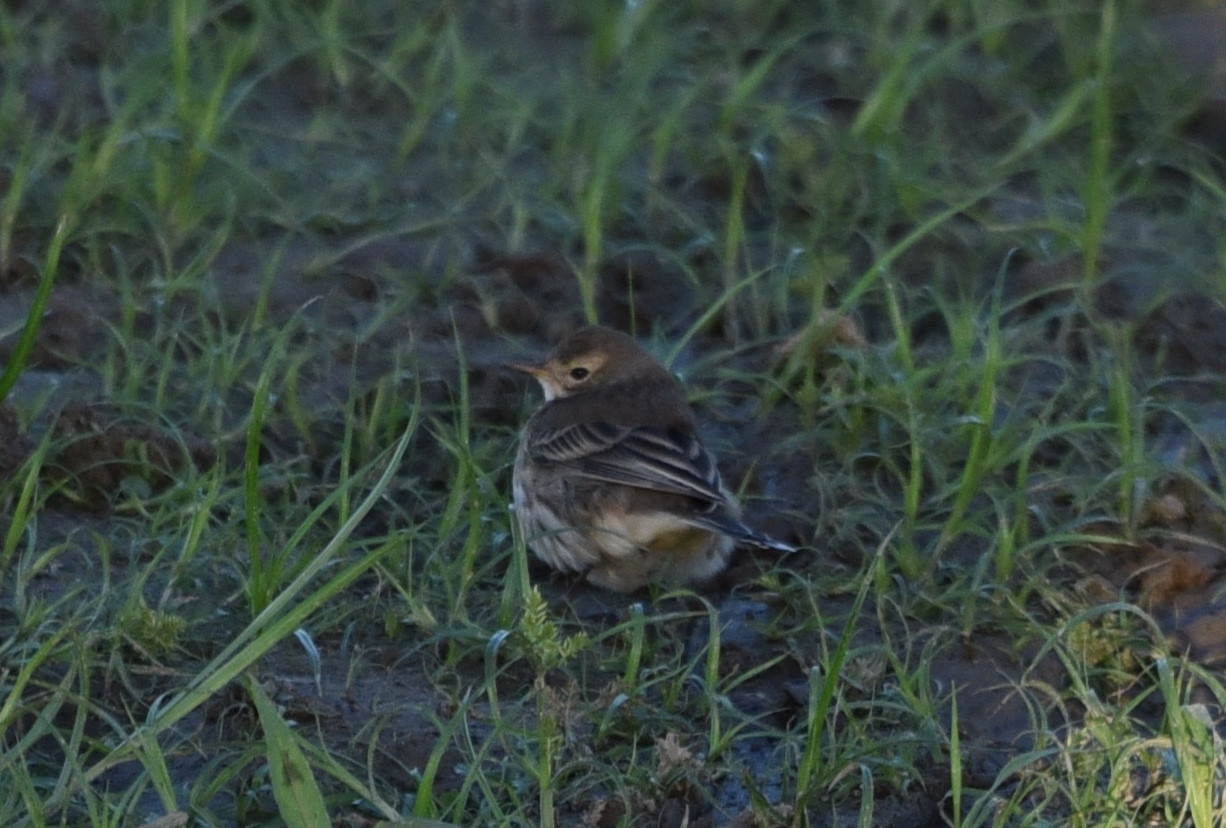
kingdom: Animalia
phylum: Chordata
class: Aves
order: Passeriformes
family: Motacillidae
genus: Anthus
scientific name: Anthus rubescens
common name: Buff-bellied pipit
